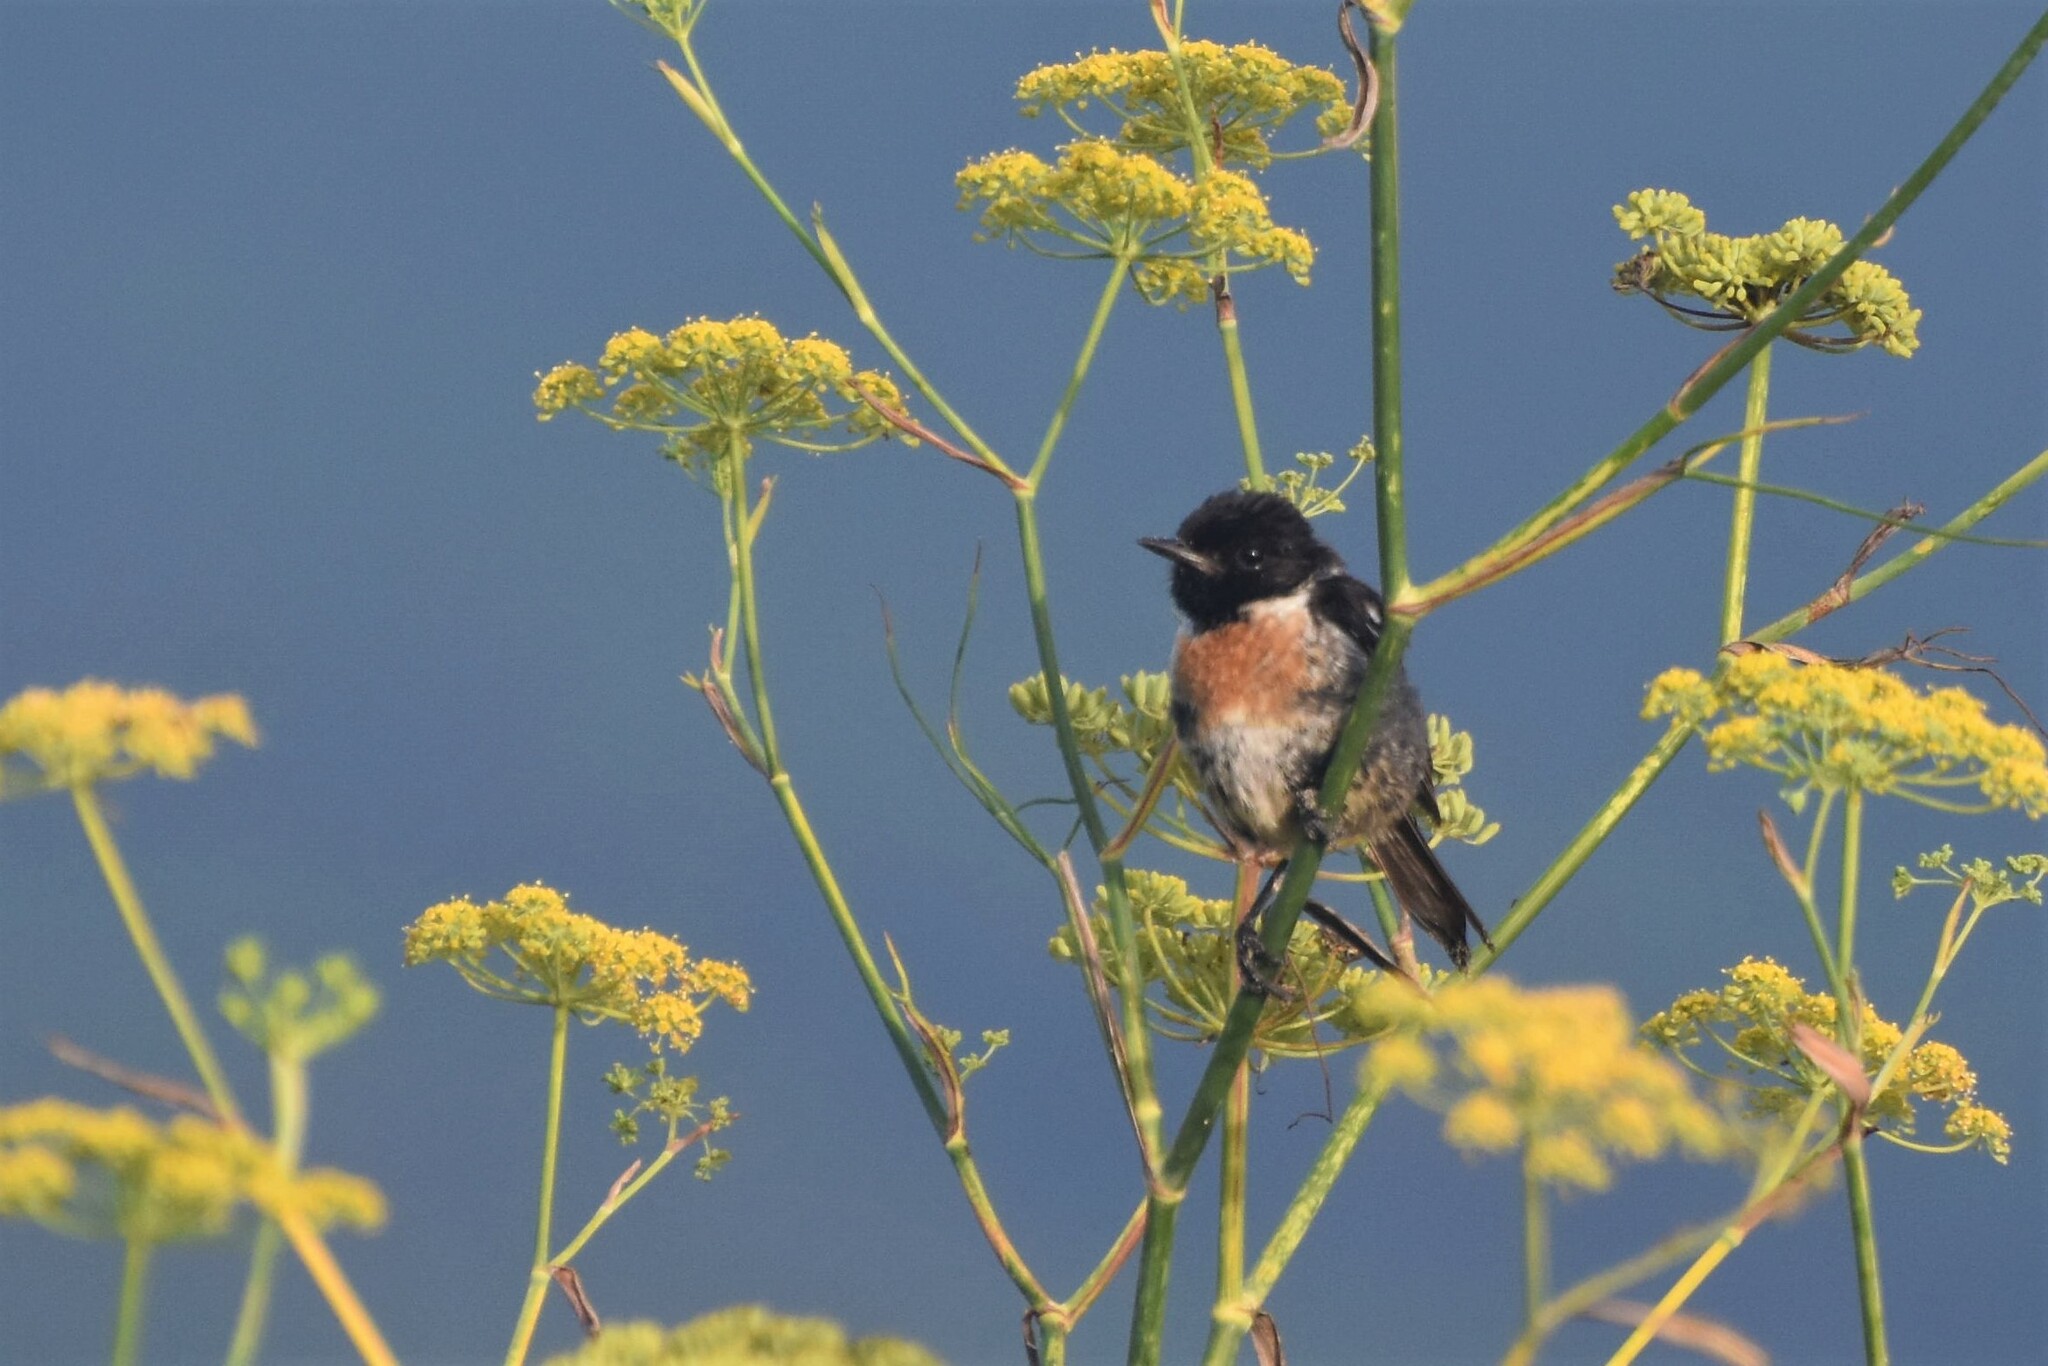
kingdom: Animalia
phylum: Chordata
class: Aves
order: Passeriformes
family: Muscicapidae
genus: Saxicola
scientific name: Saxicola rubicola
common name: European stonechat
